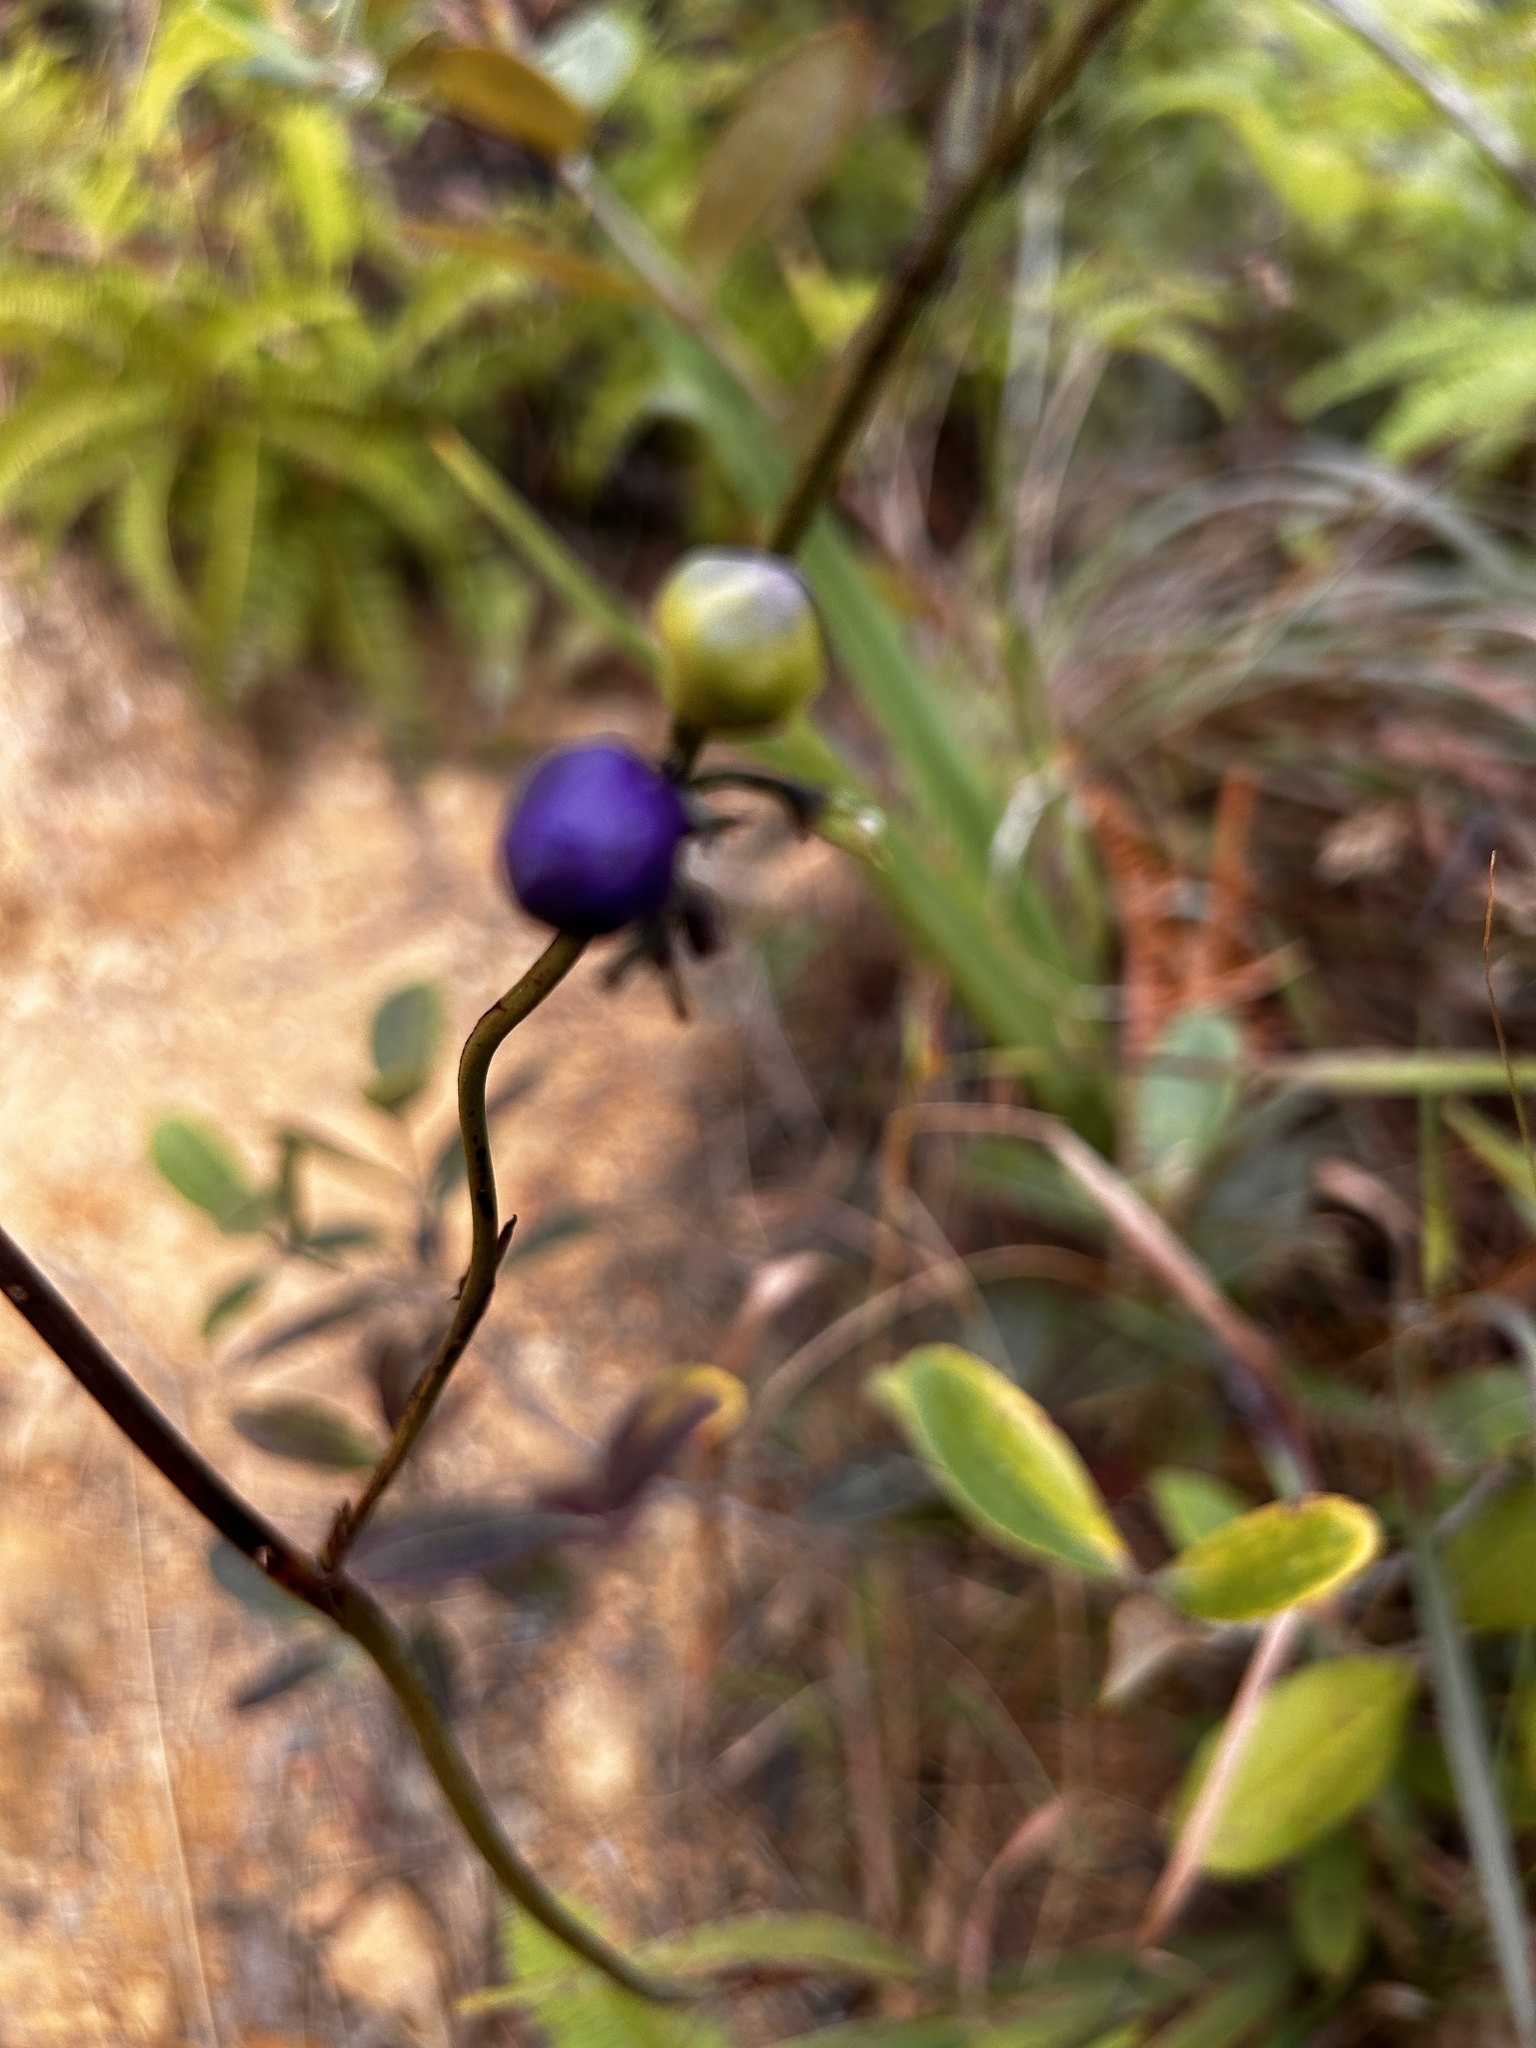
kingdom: Plantae
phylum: Tracheophyta
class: Liliopsida
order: Asparagales
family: Asphodelaceae
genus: Dianella
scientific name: Dianella ensifolia
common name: New zealand lilyplant
